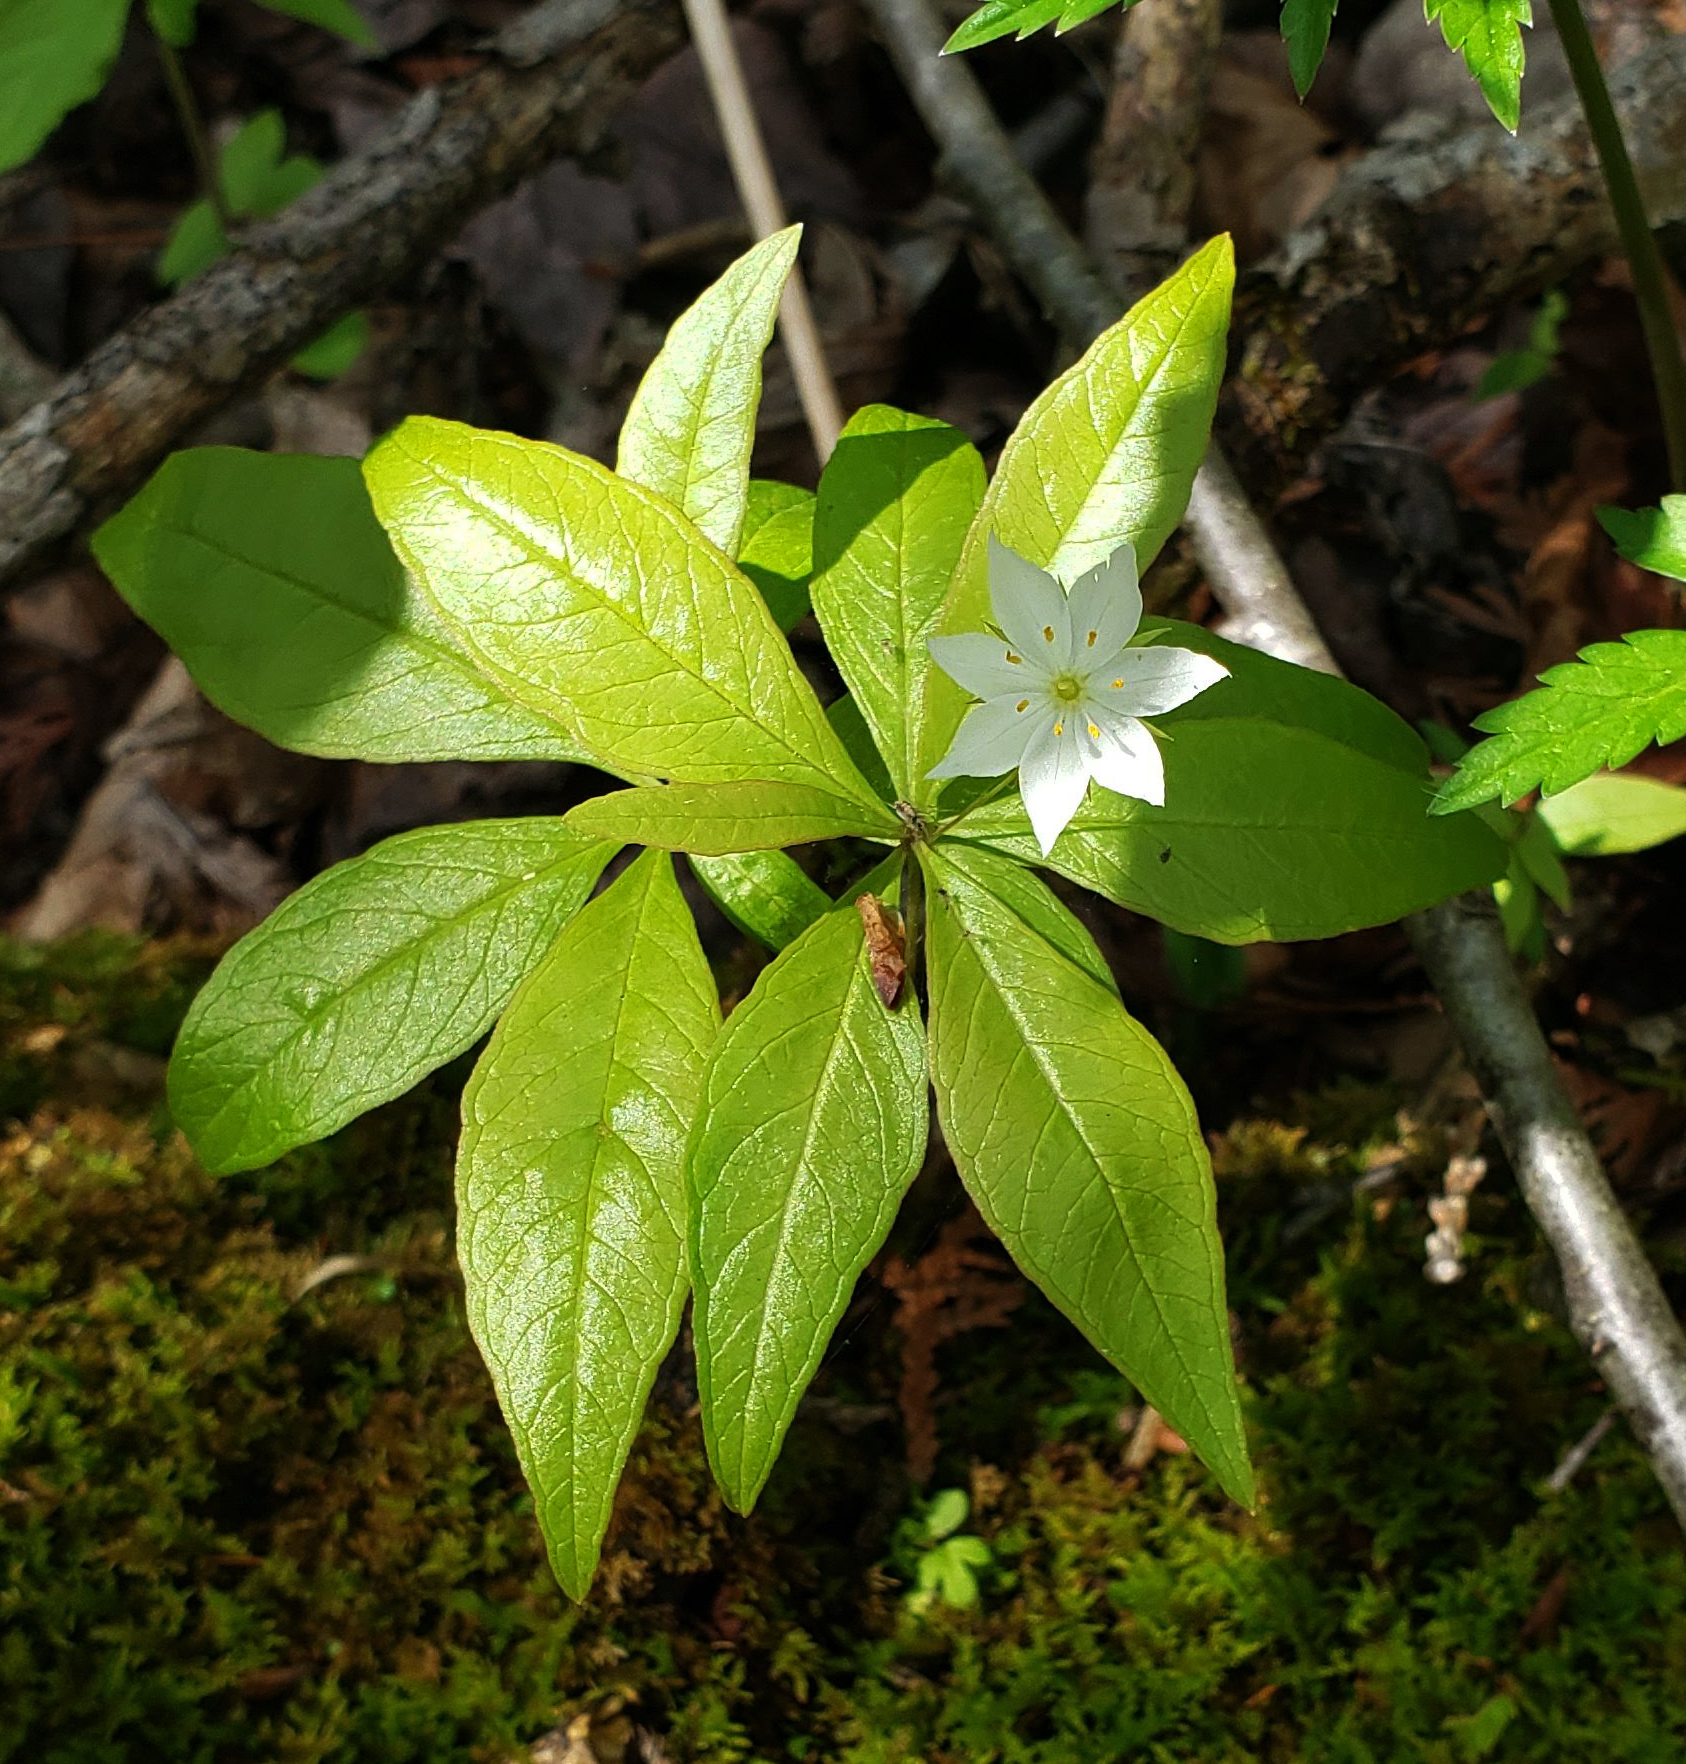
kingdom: Plantae
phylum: Tracheophyta
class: Magnoliopsida
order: Ericales
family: Primulaceae
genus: Lysimachia
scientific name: Lysimachia borealis
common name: American starflower
